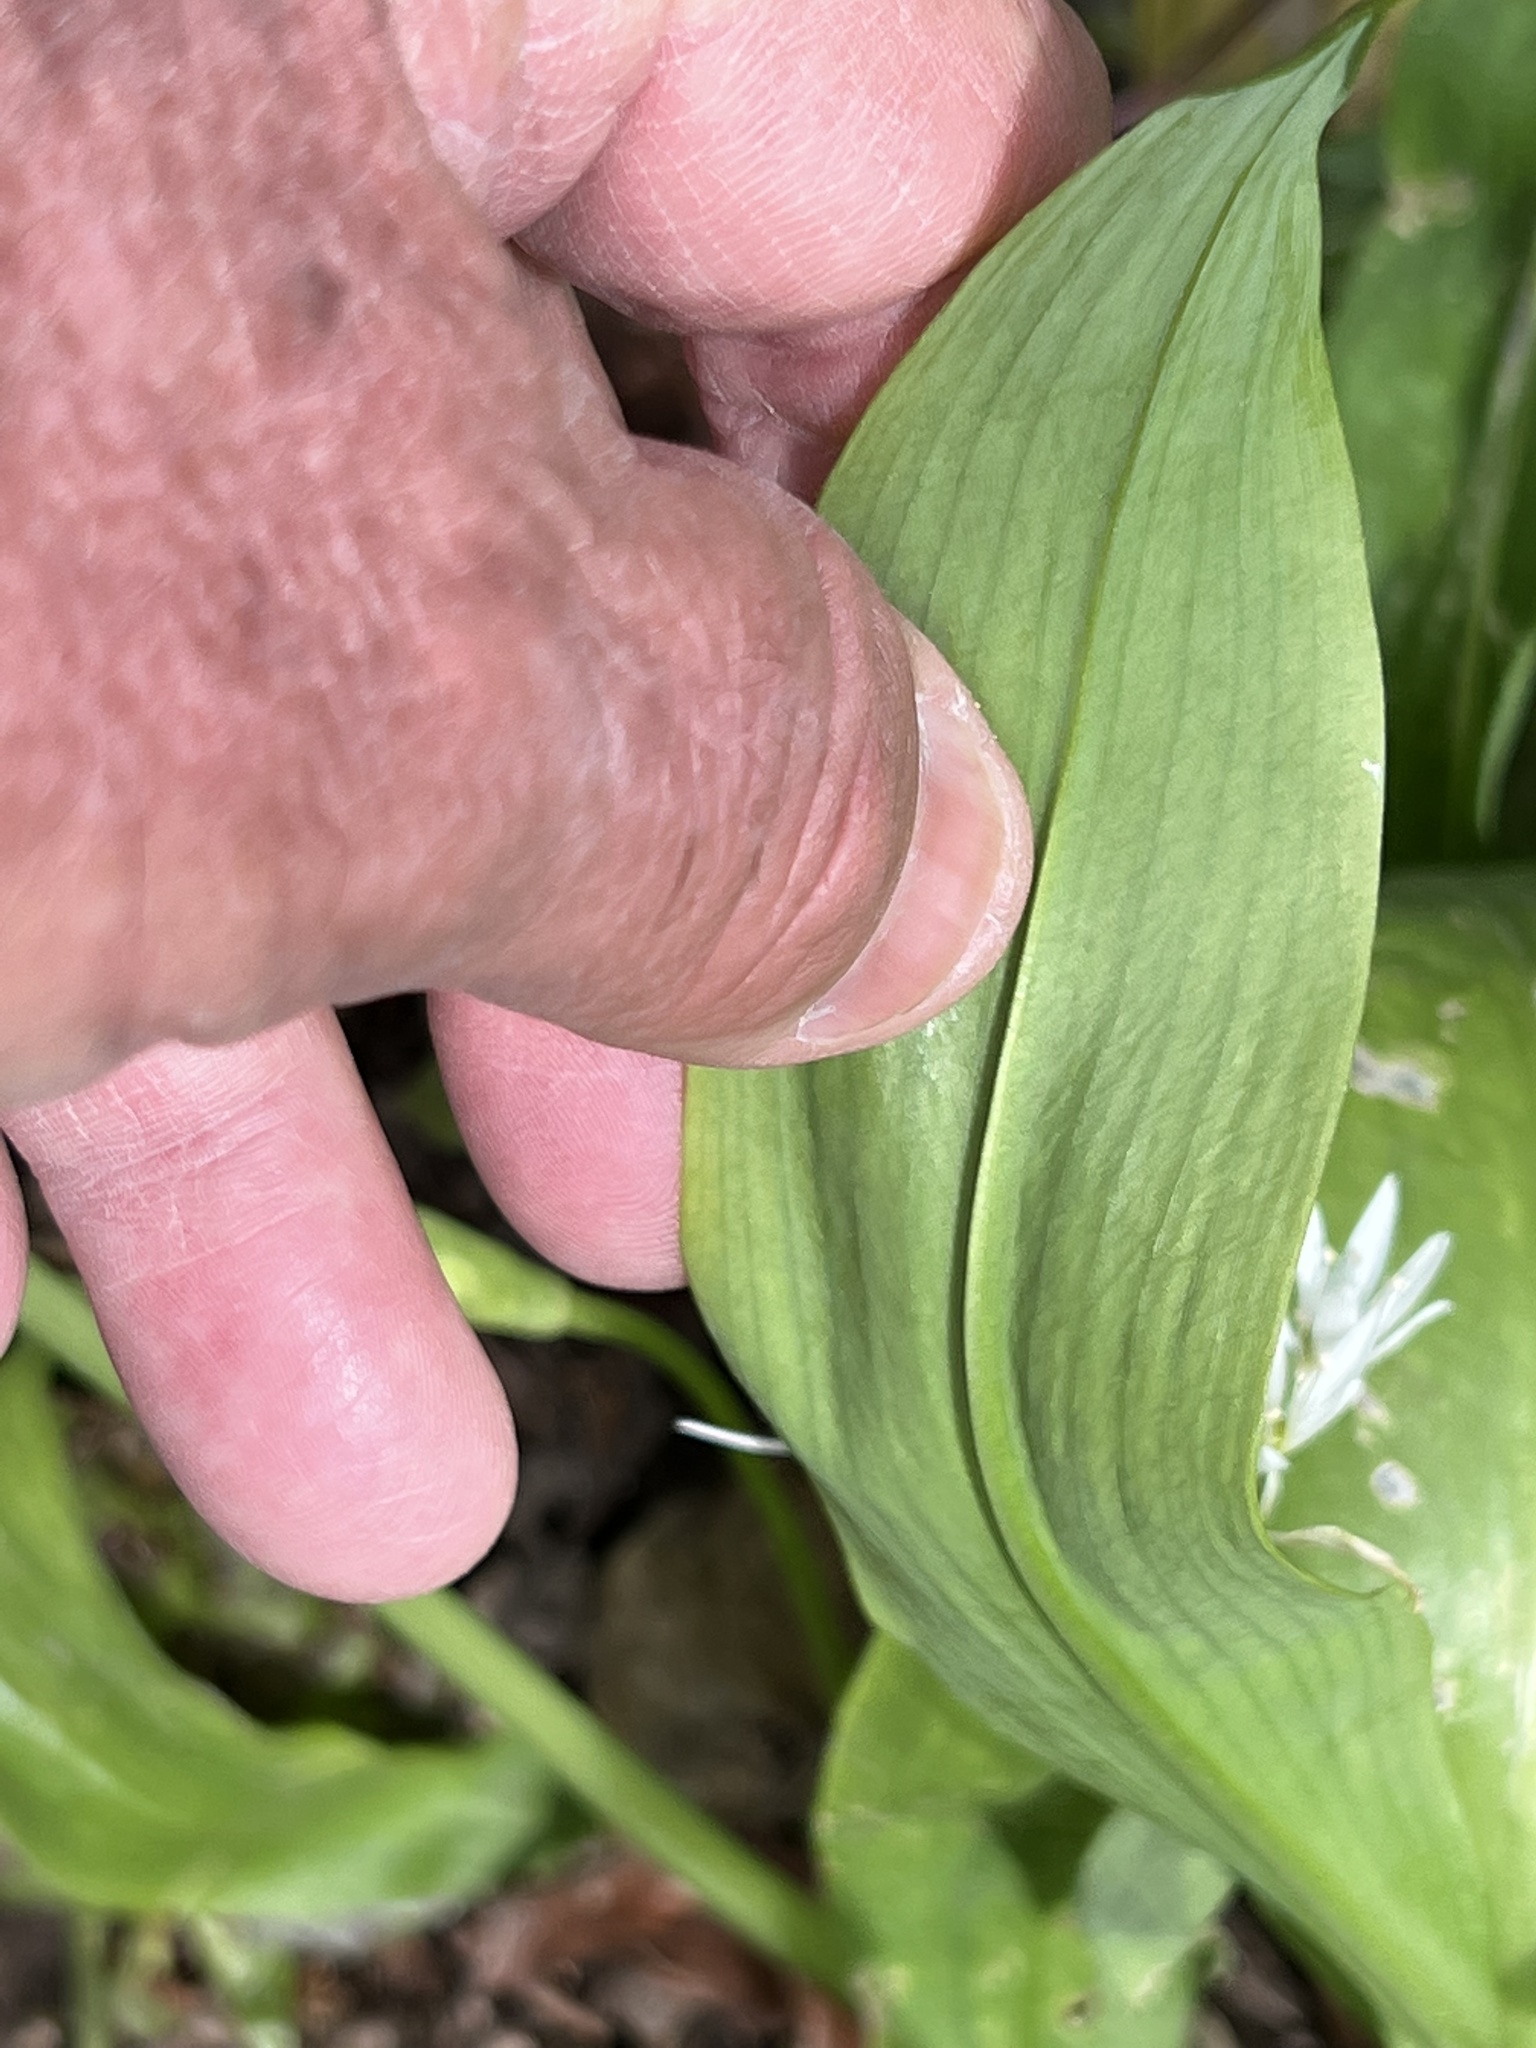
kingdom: Plantae
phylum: Tracheophyta
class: Liliopsida
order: Asparagales
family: Amaryllidaceae
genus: Allium
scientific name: Allium ursinum
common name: Ramsons
